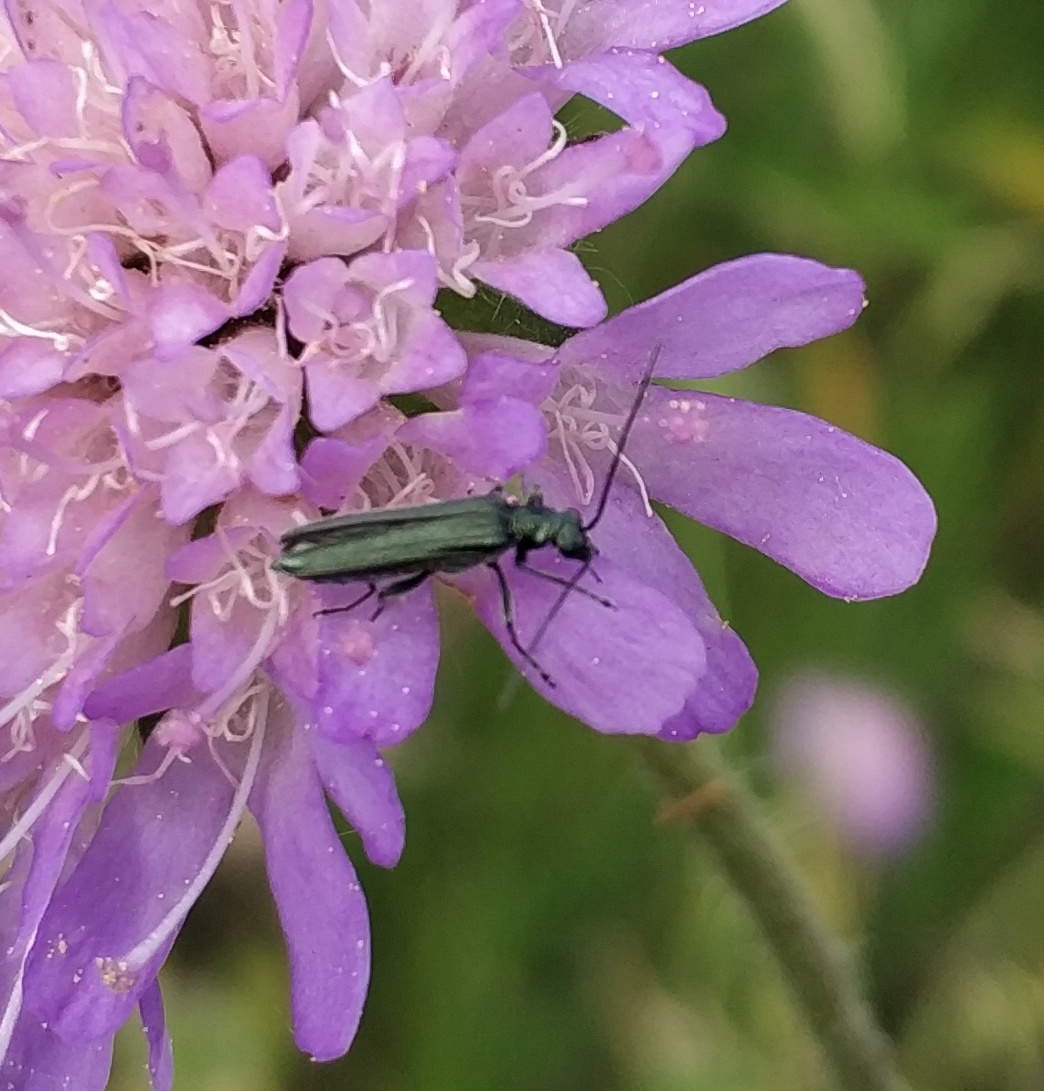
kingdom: Animalia
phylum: Arthropoda
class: Insecta
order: Coleoptera
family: Oedemeridae
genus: Oedemera
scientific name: Oedemera lurida
